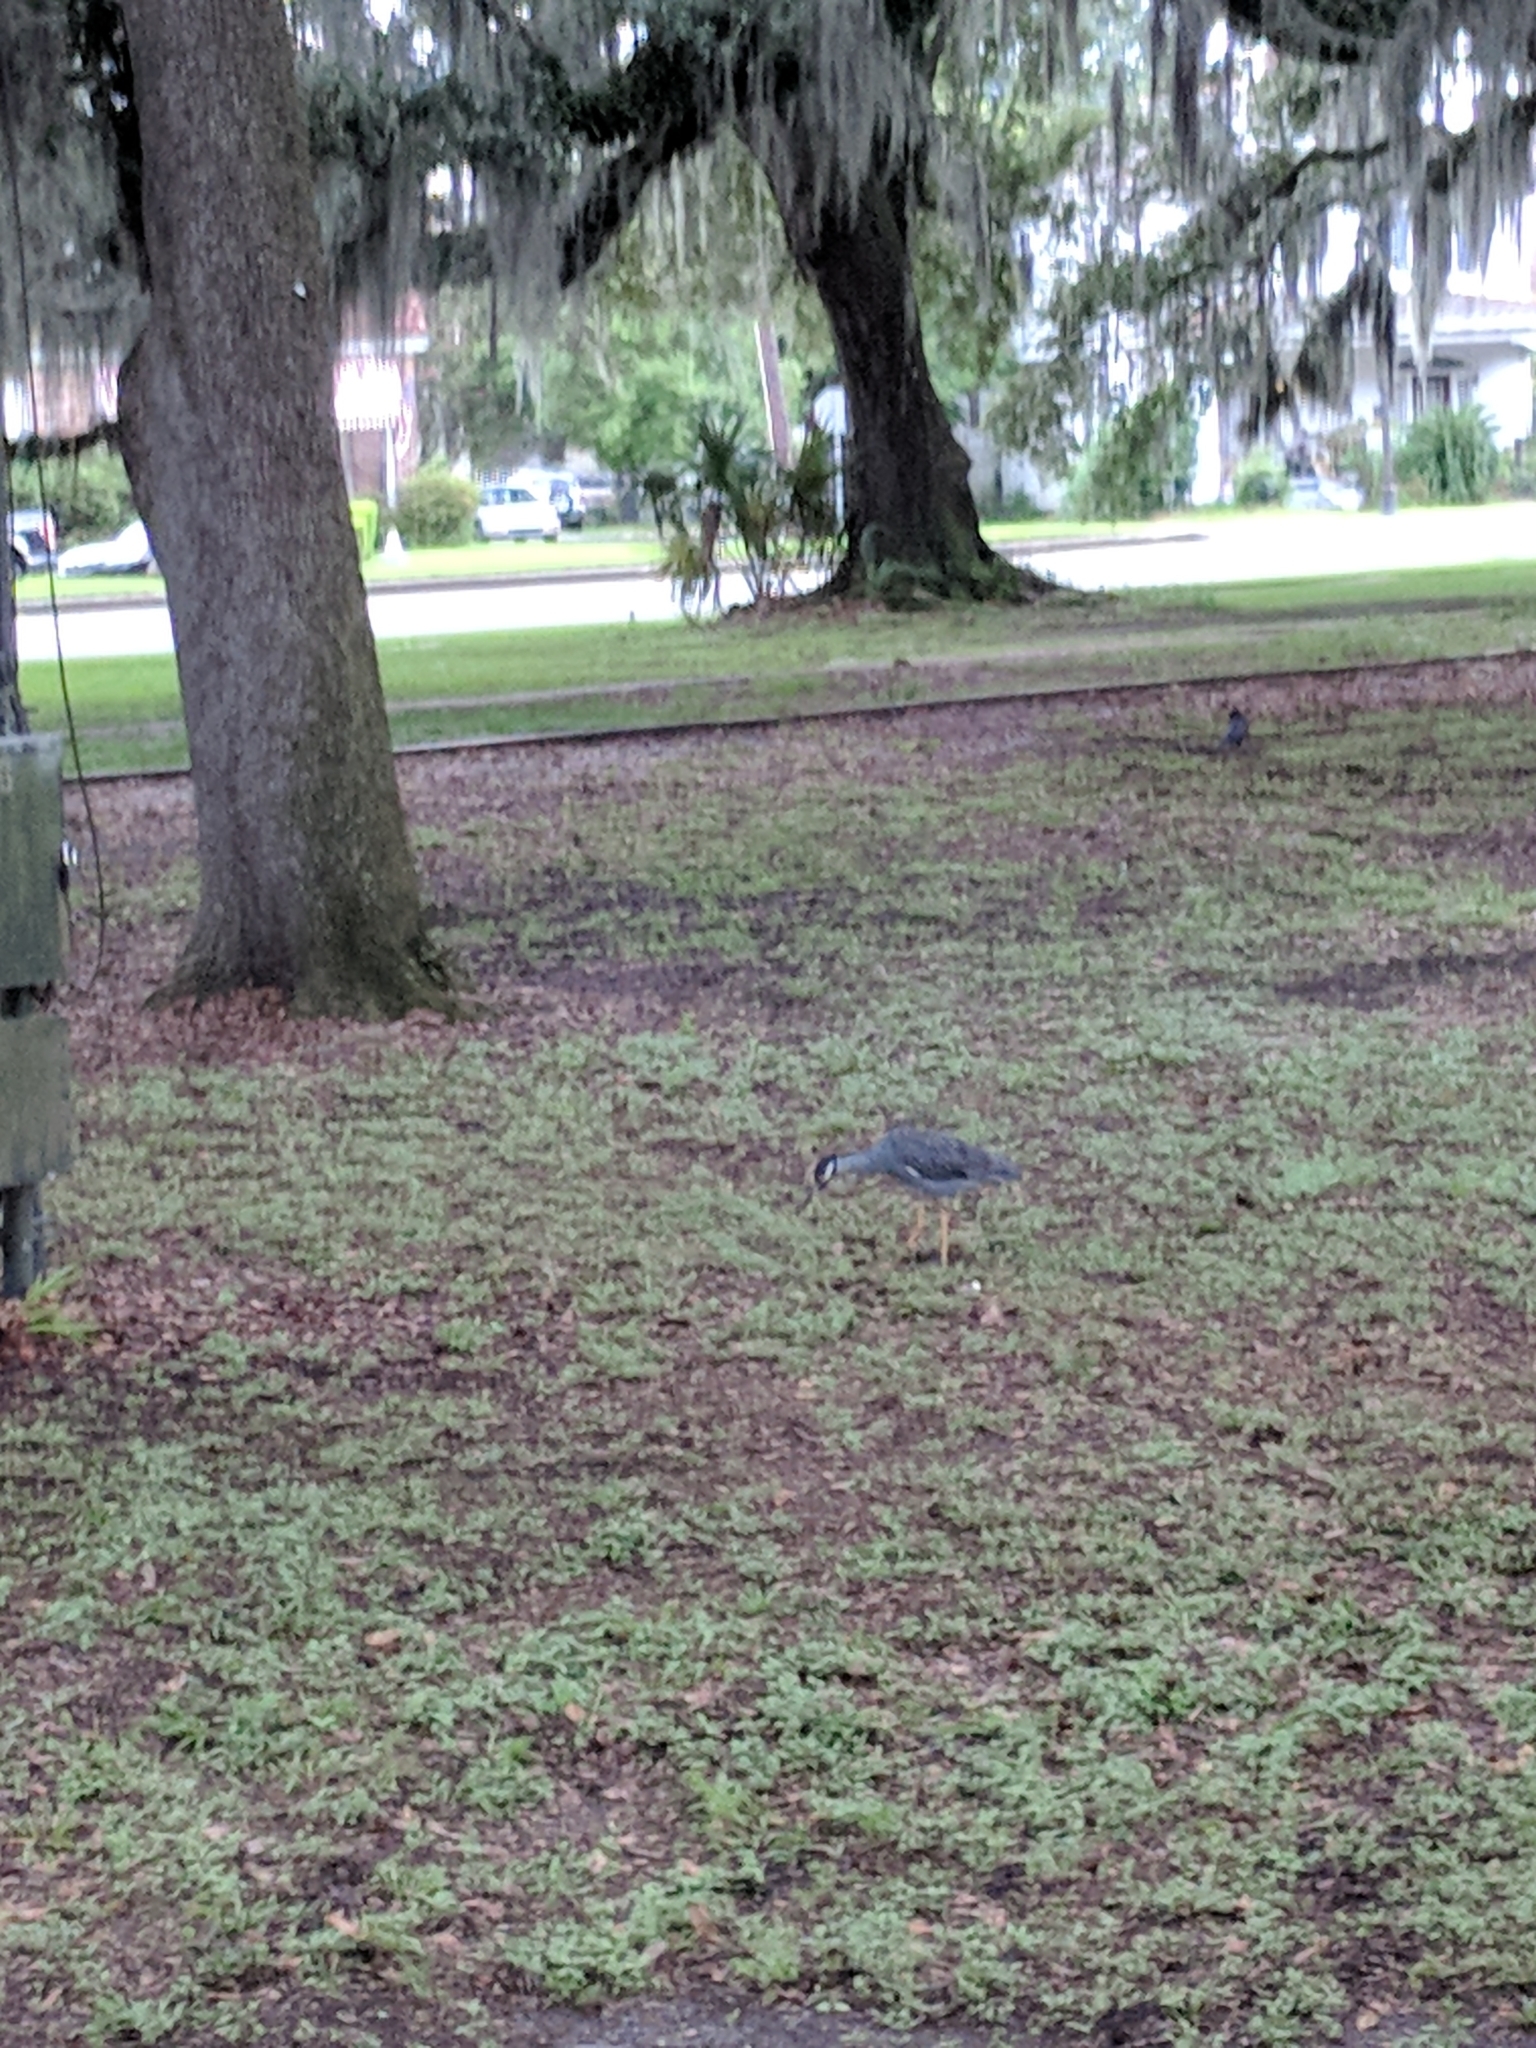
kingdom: Animalia
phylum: Chordata
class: Aves
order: Pelecaniformes
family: Ardeidae
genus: Nyctanassa
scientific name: Nyctanassa violacea
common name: Yellow-crowned night heron
